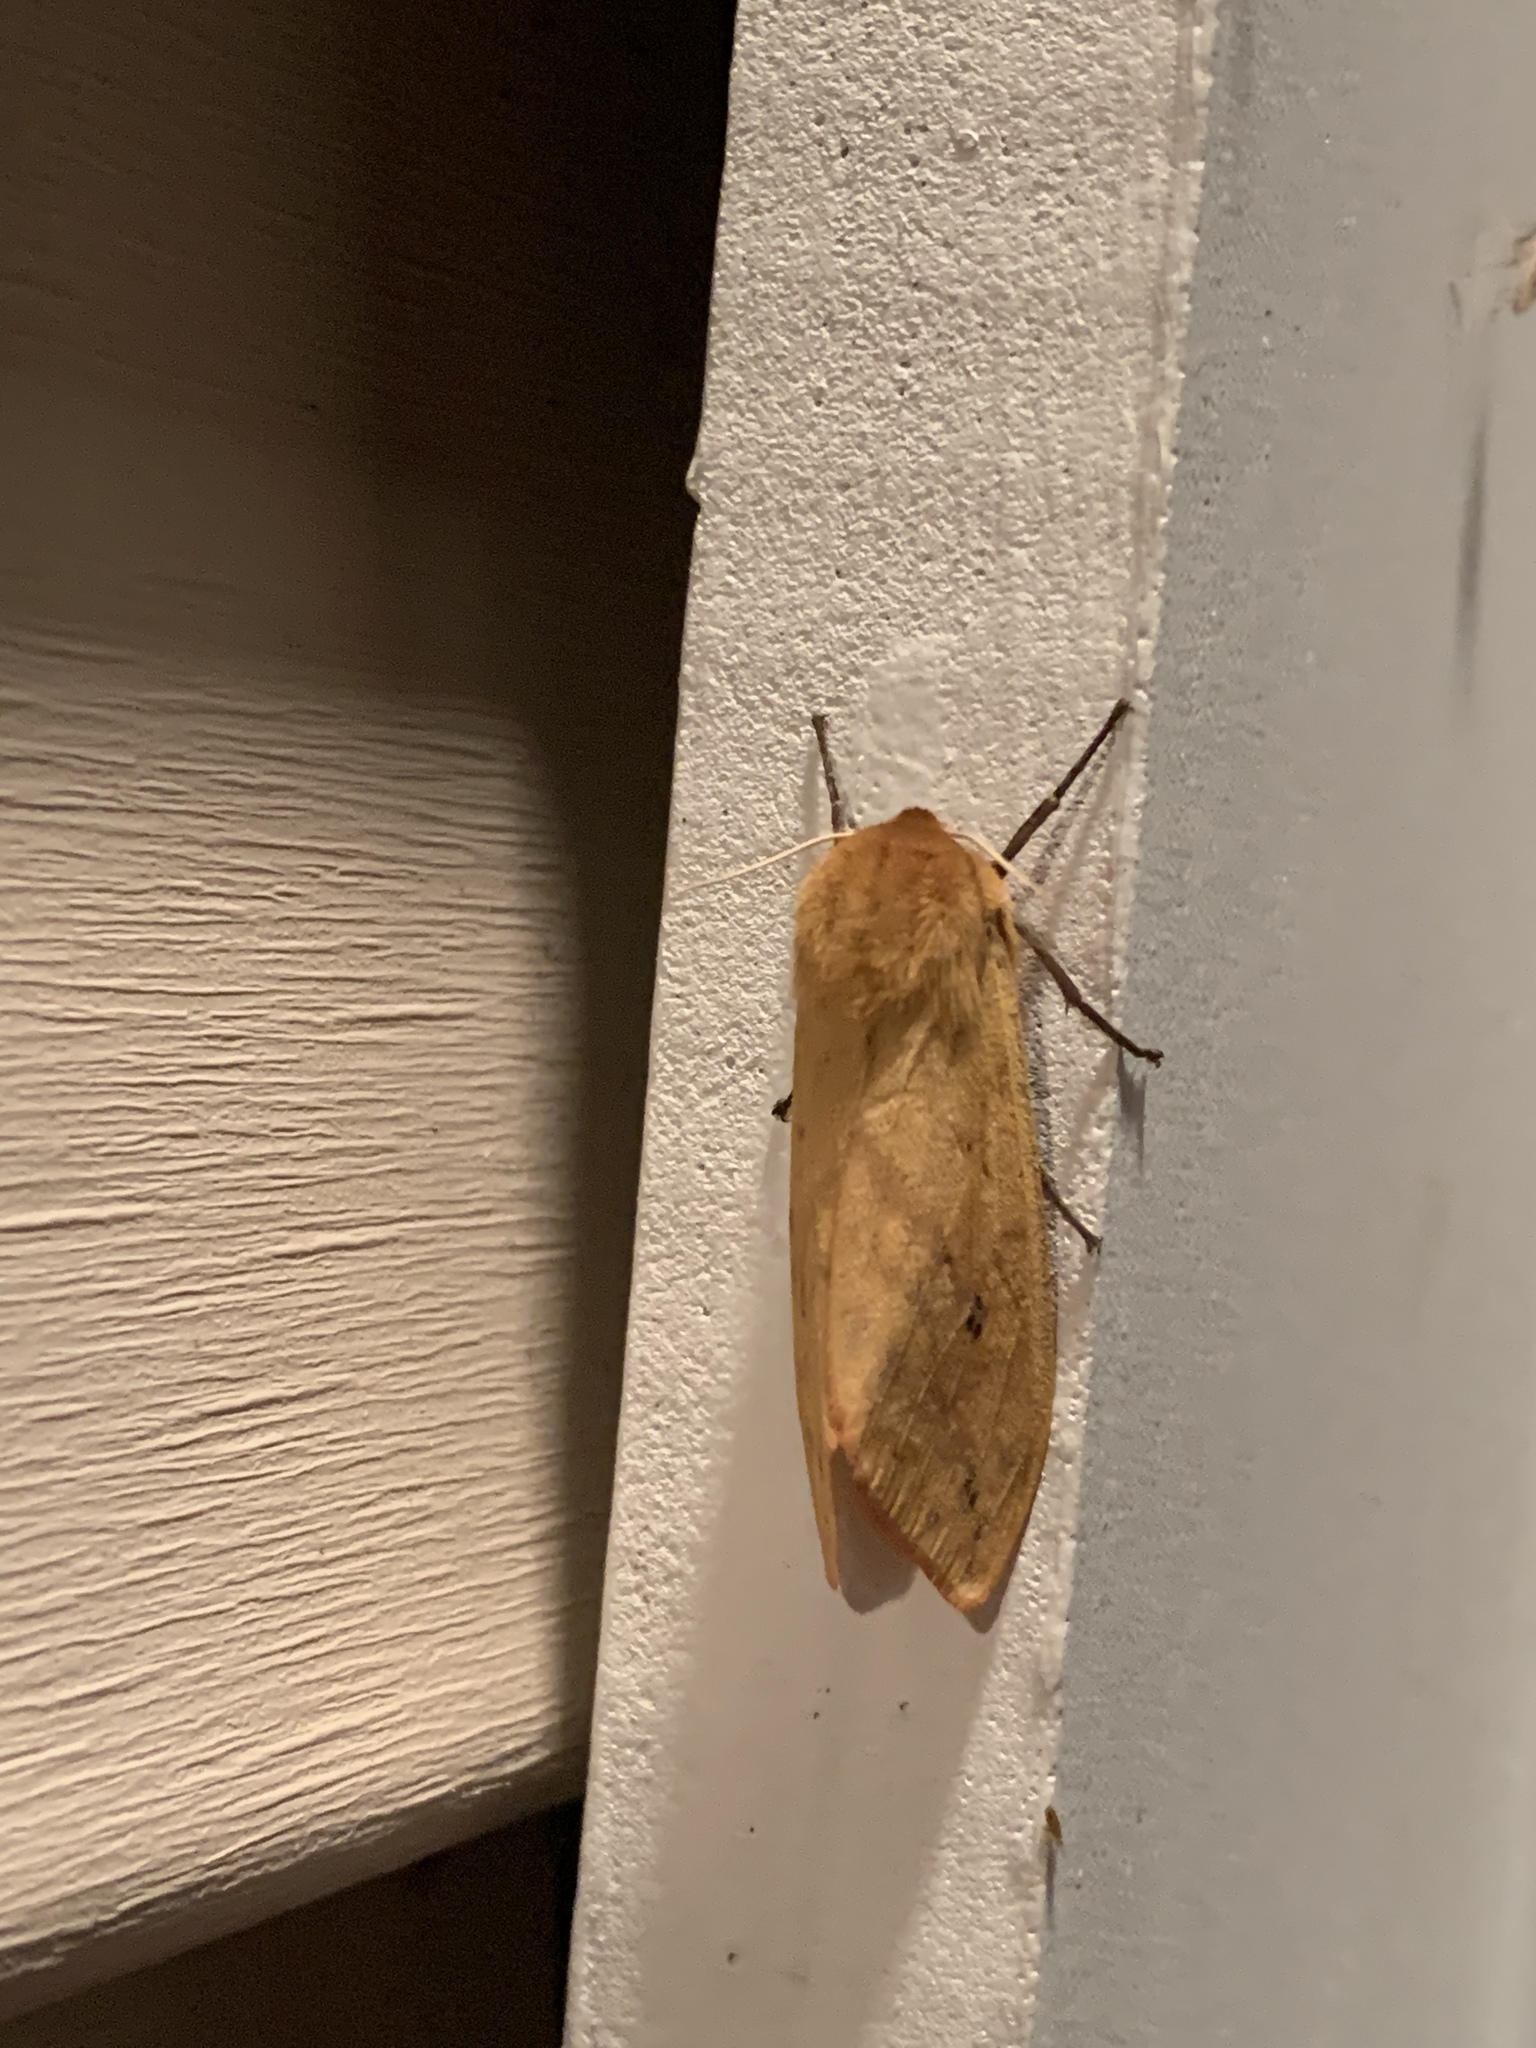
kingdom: Animalia
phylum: Arthropoda
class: Insecta
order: Lepidoptera
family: Erebidae
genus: Pyrrharctia
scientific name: Pyrrharctia isabella
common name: Isabella tiger moth
